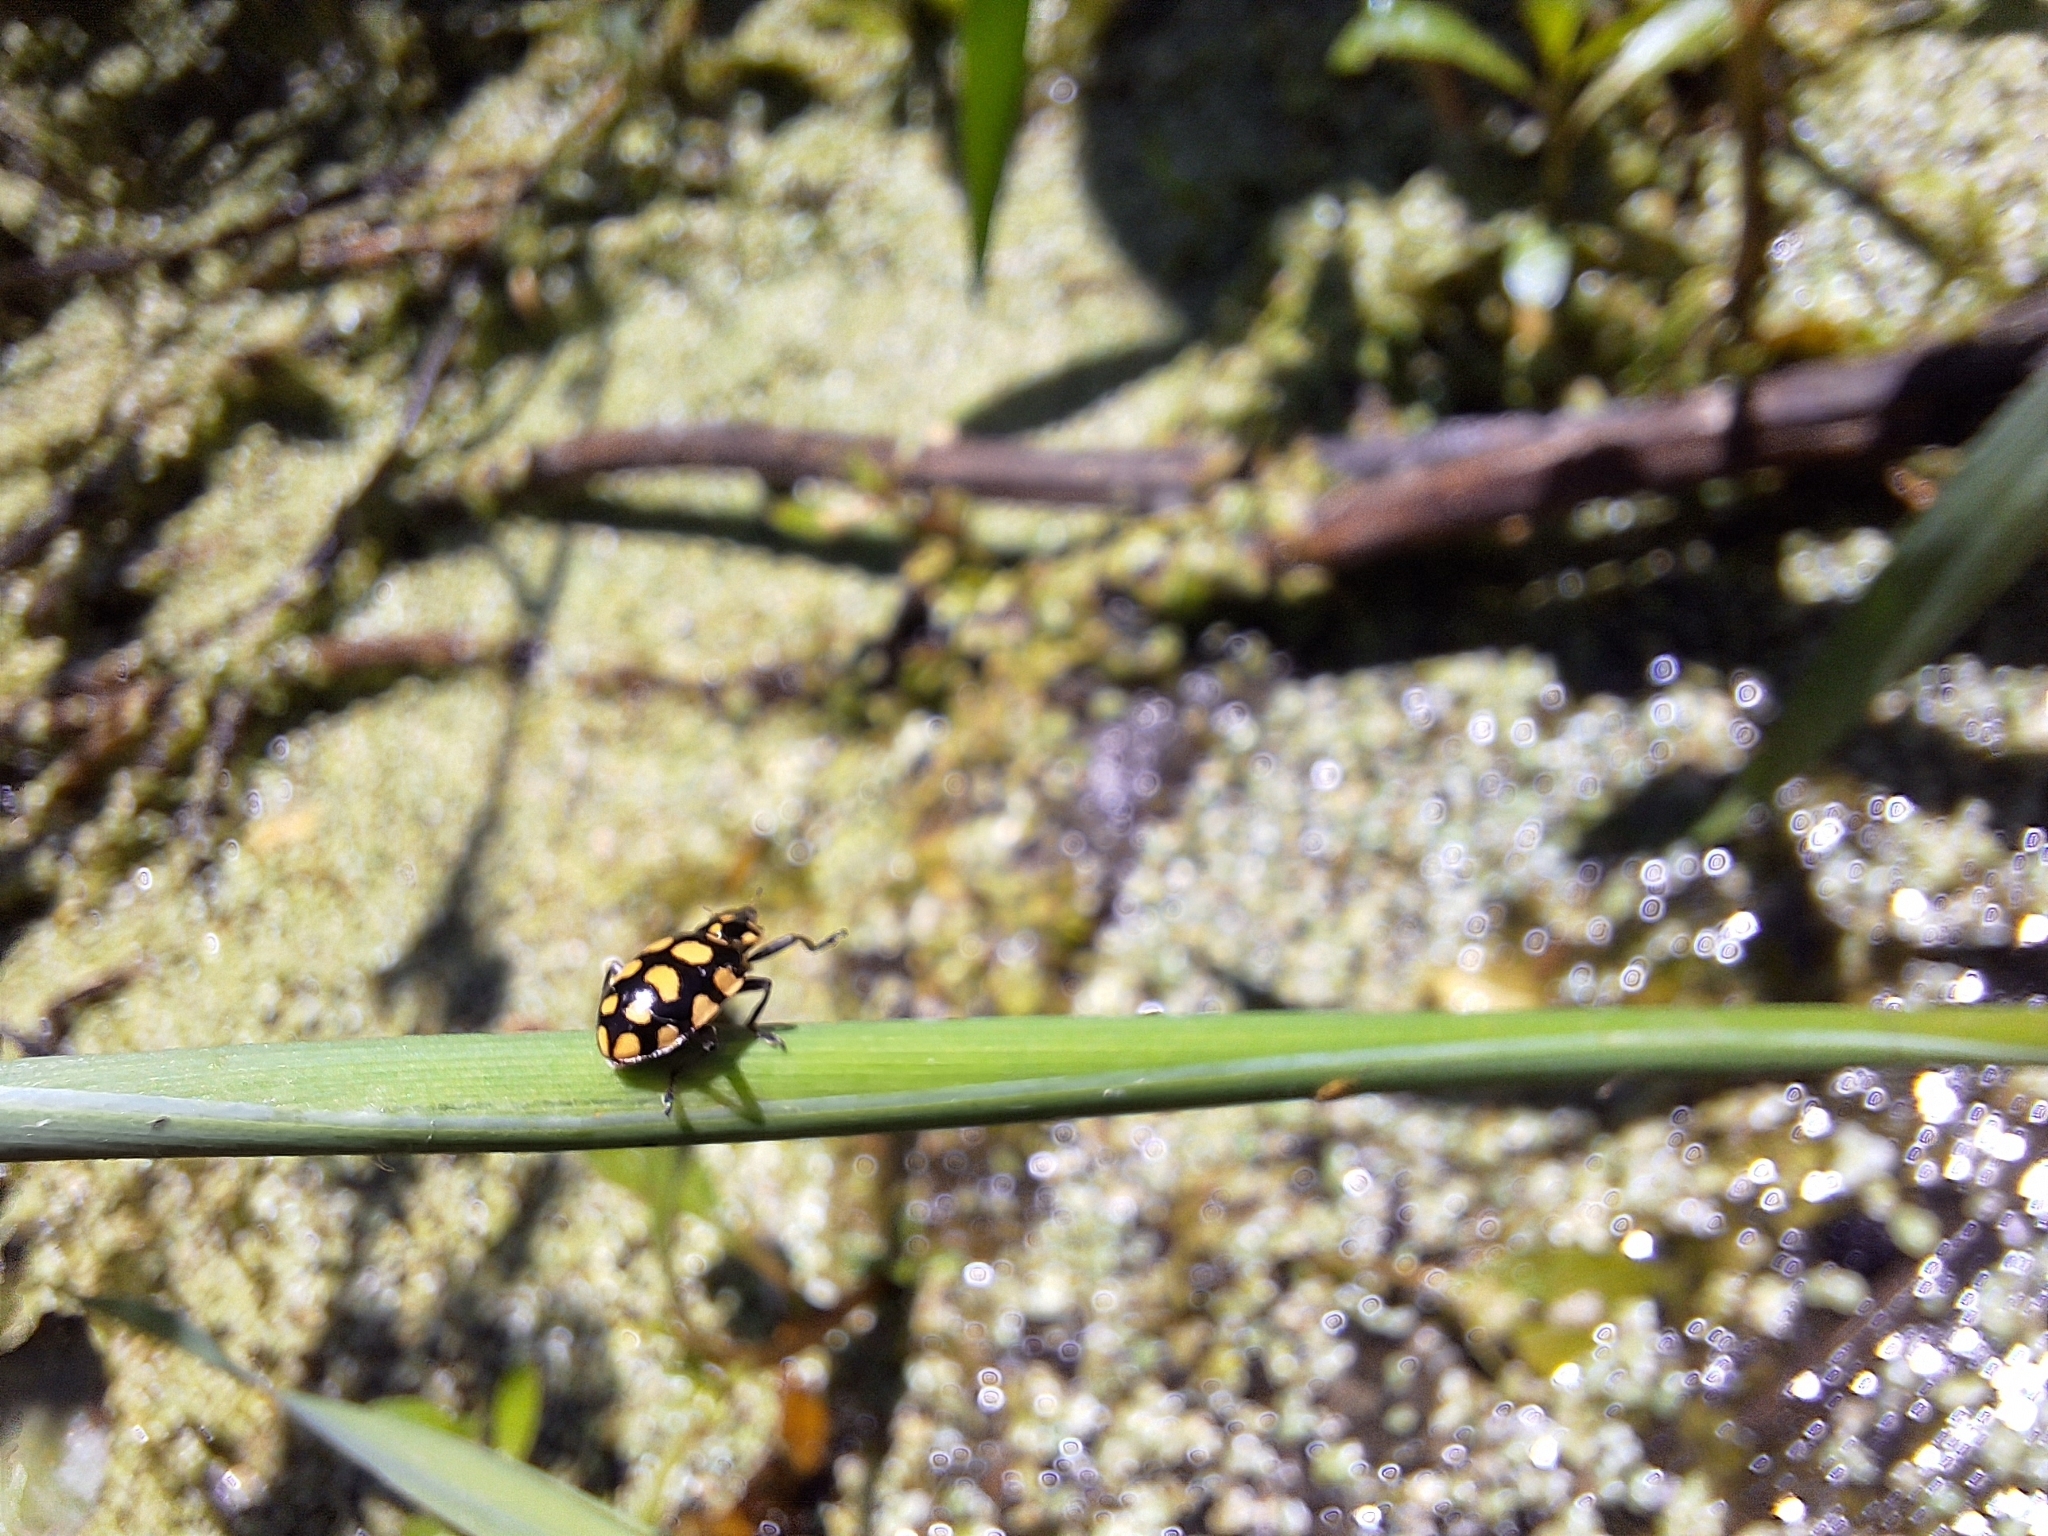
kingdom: Animalia
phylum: Arthropoda
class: Insecta
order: Coleoptera
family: Coccinellidae
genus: Coleomegilla
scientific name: Coleomegilla
